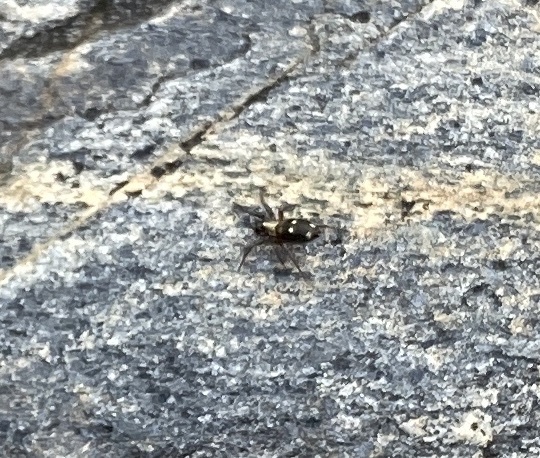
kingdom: Animalia
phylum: Arthropoda
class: Arachnida
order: Araneae
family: Gnaphosidae
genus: Callilepis
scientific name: Callilepis nocturna
